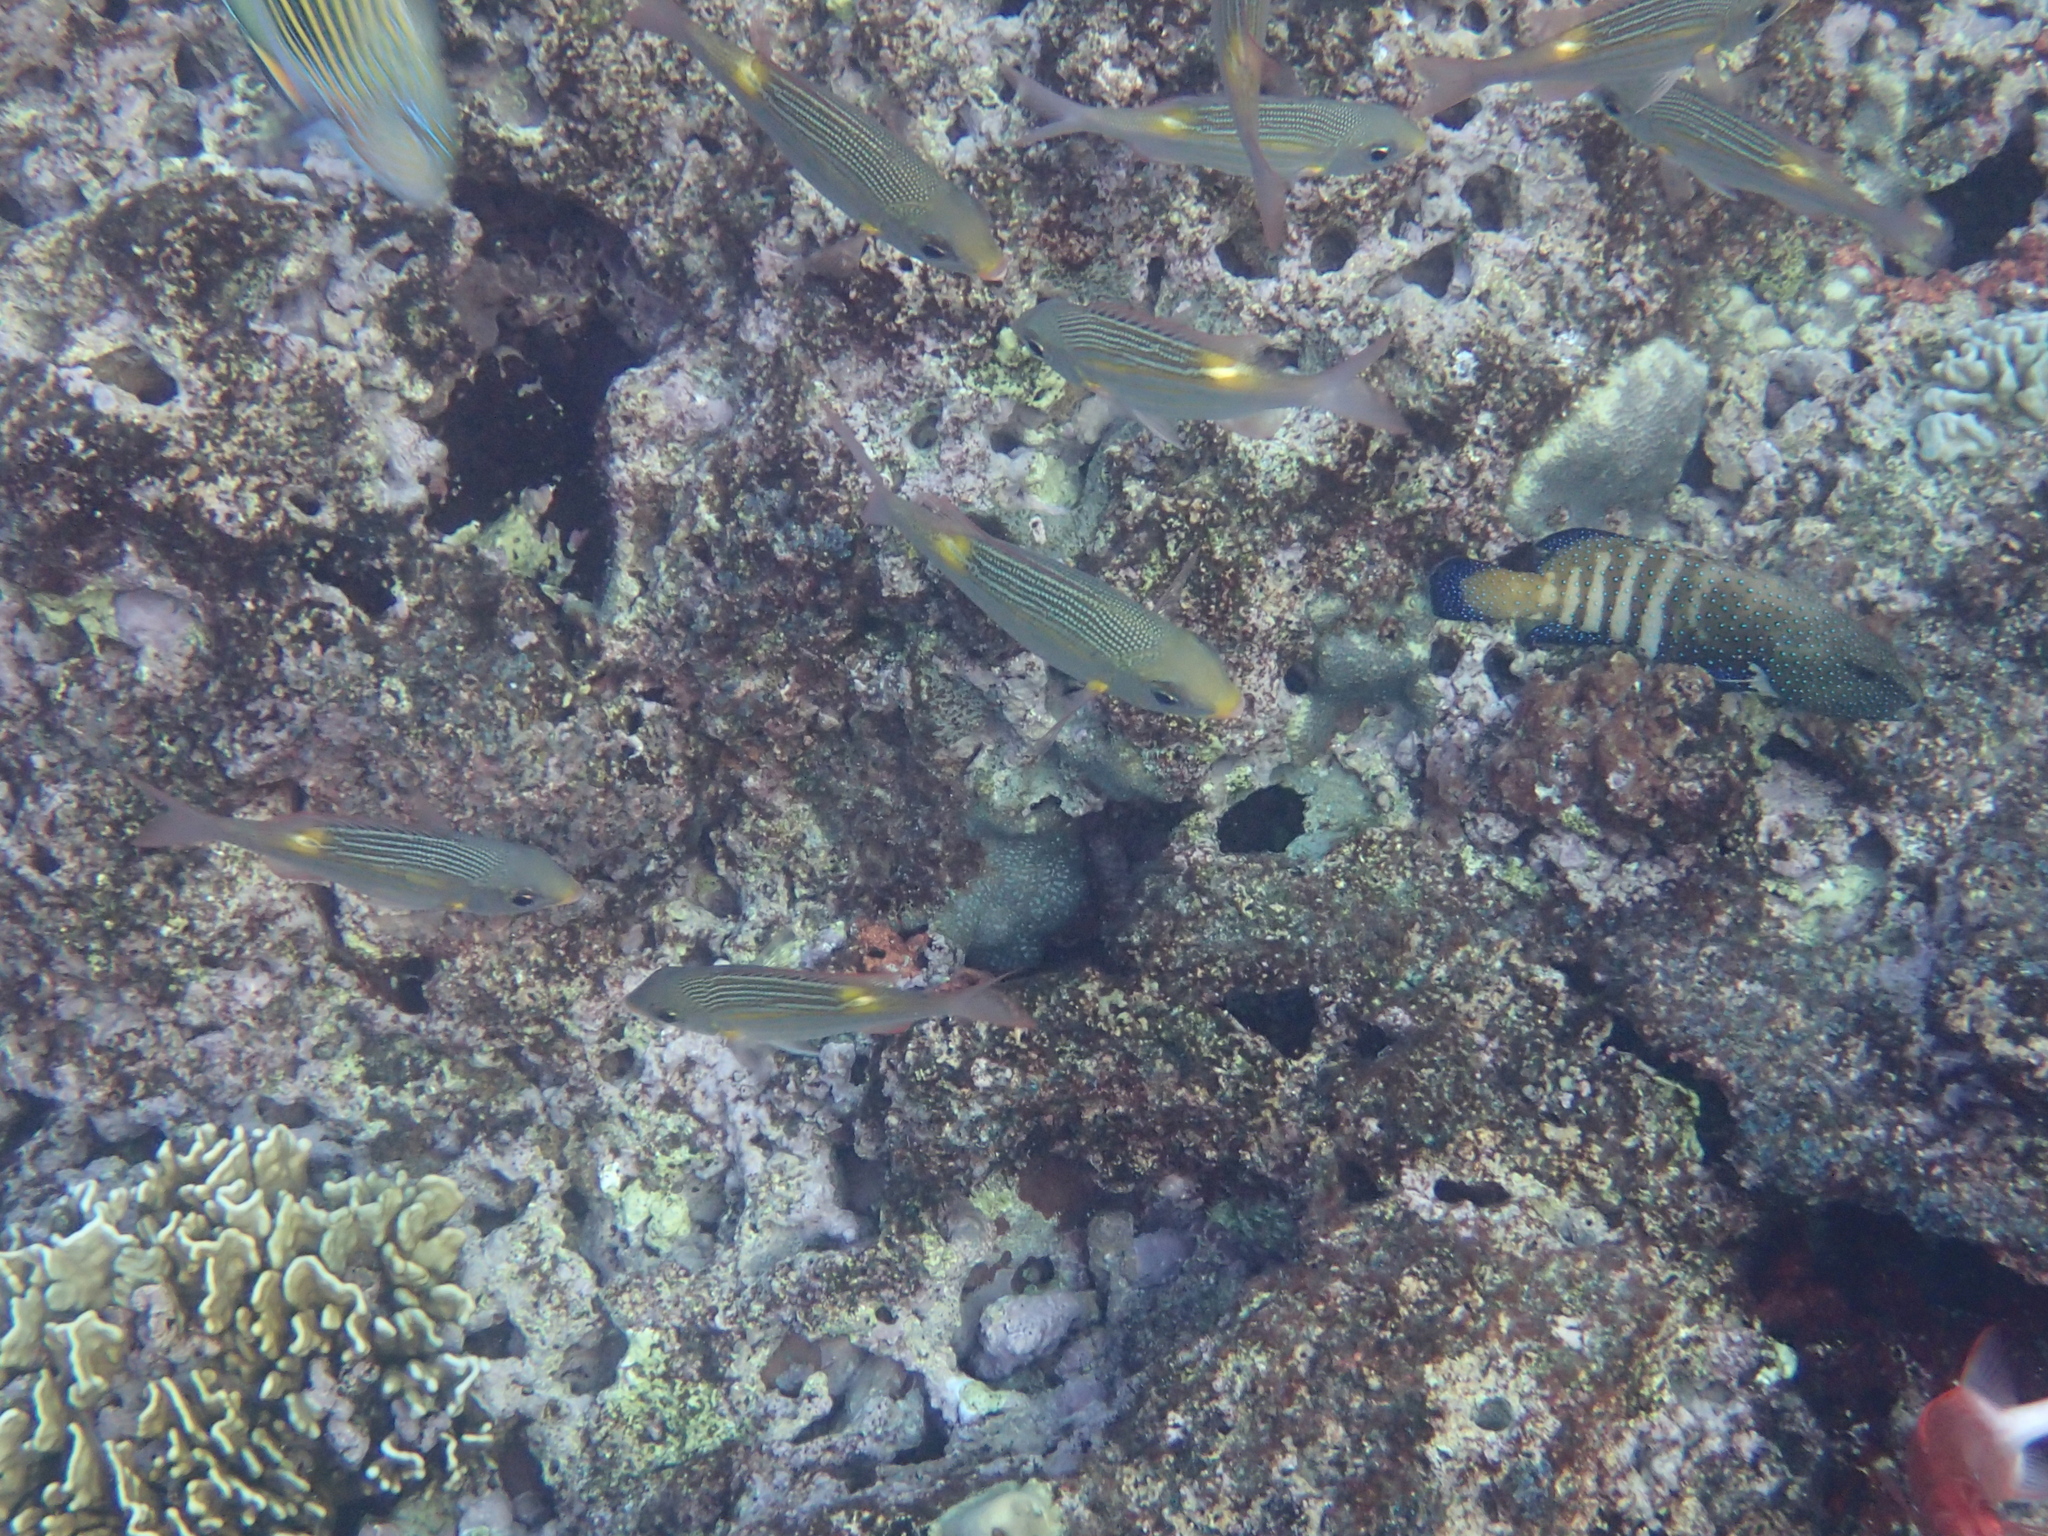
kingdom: Animalia
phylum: Chordata
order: Perciformes
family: Lethrinidae
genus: Gnathodentex
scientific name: Gnathodentex aureolineatus
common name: Gold-lined sea bream
